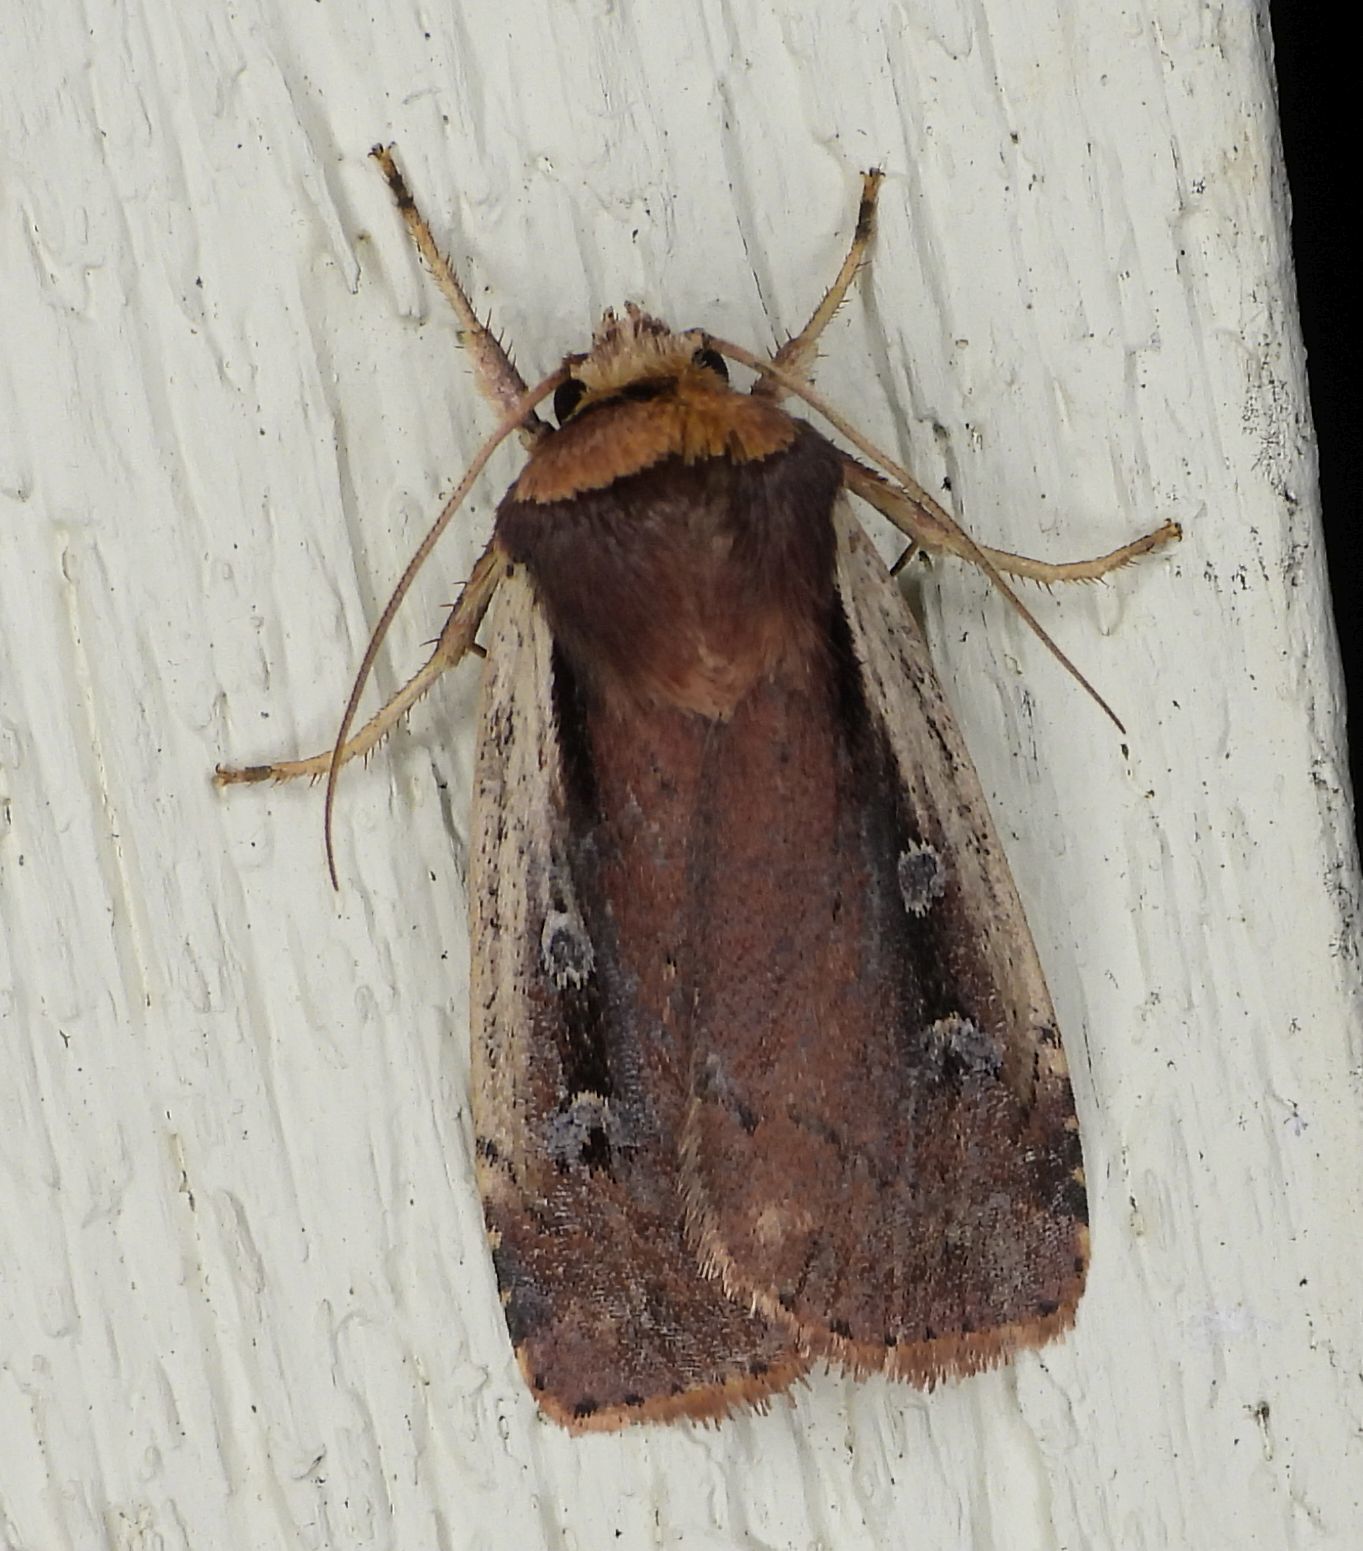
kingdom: Animalia
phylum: Arthropoda
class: Insecta
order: Lepidoptera
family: Noctuidae
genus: Ochropleura
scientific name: Ochropleura implecta
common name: Flame-shouldered dart
